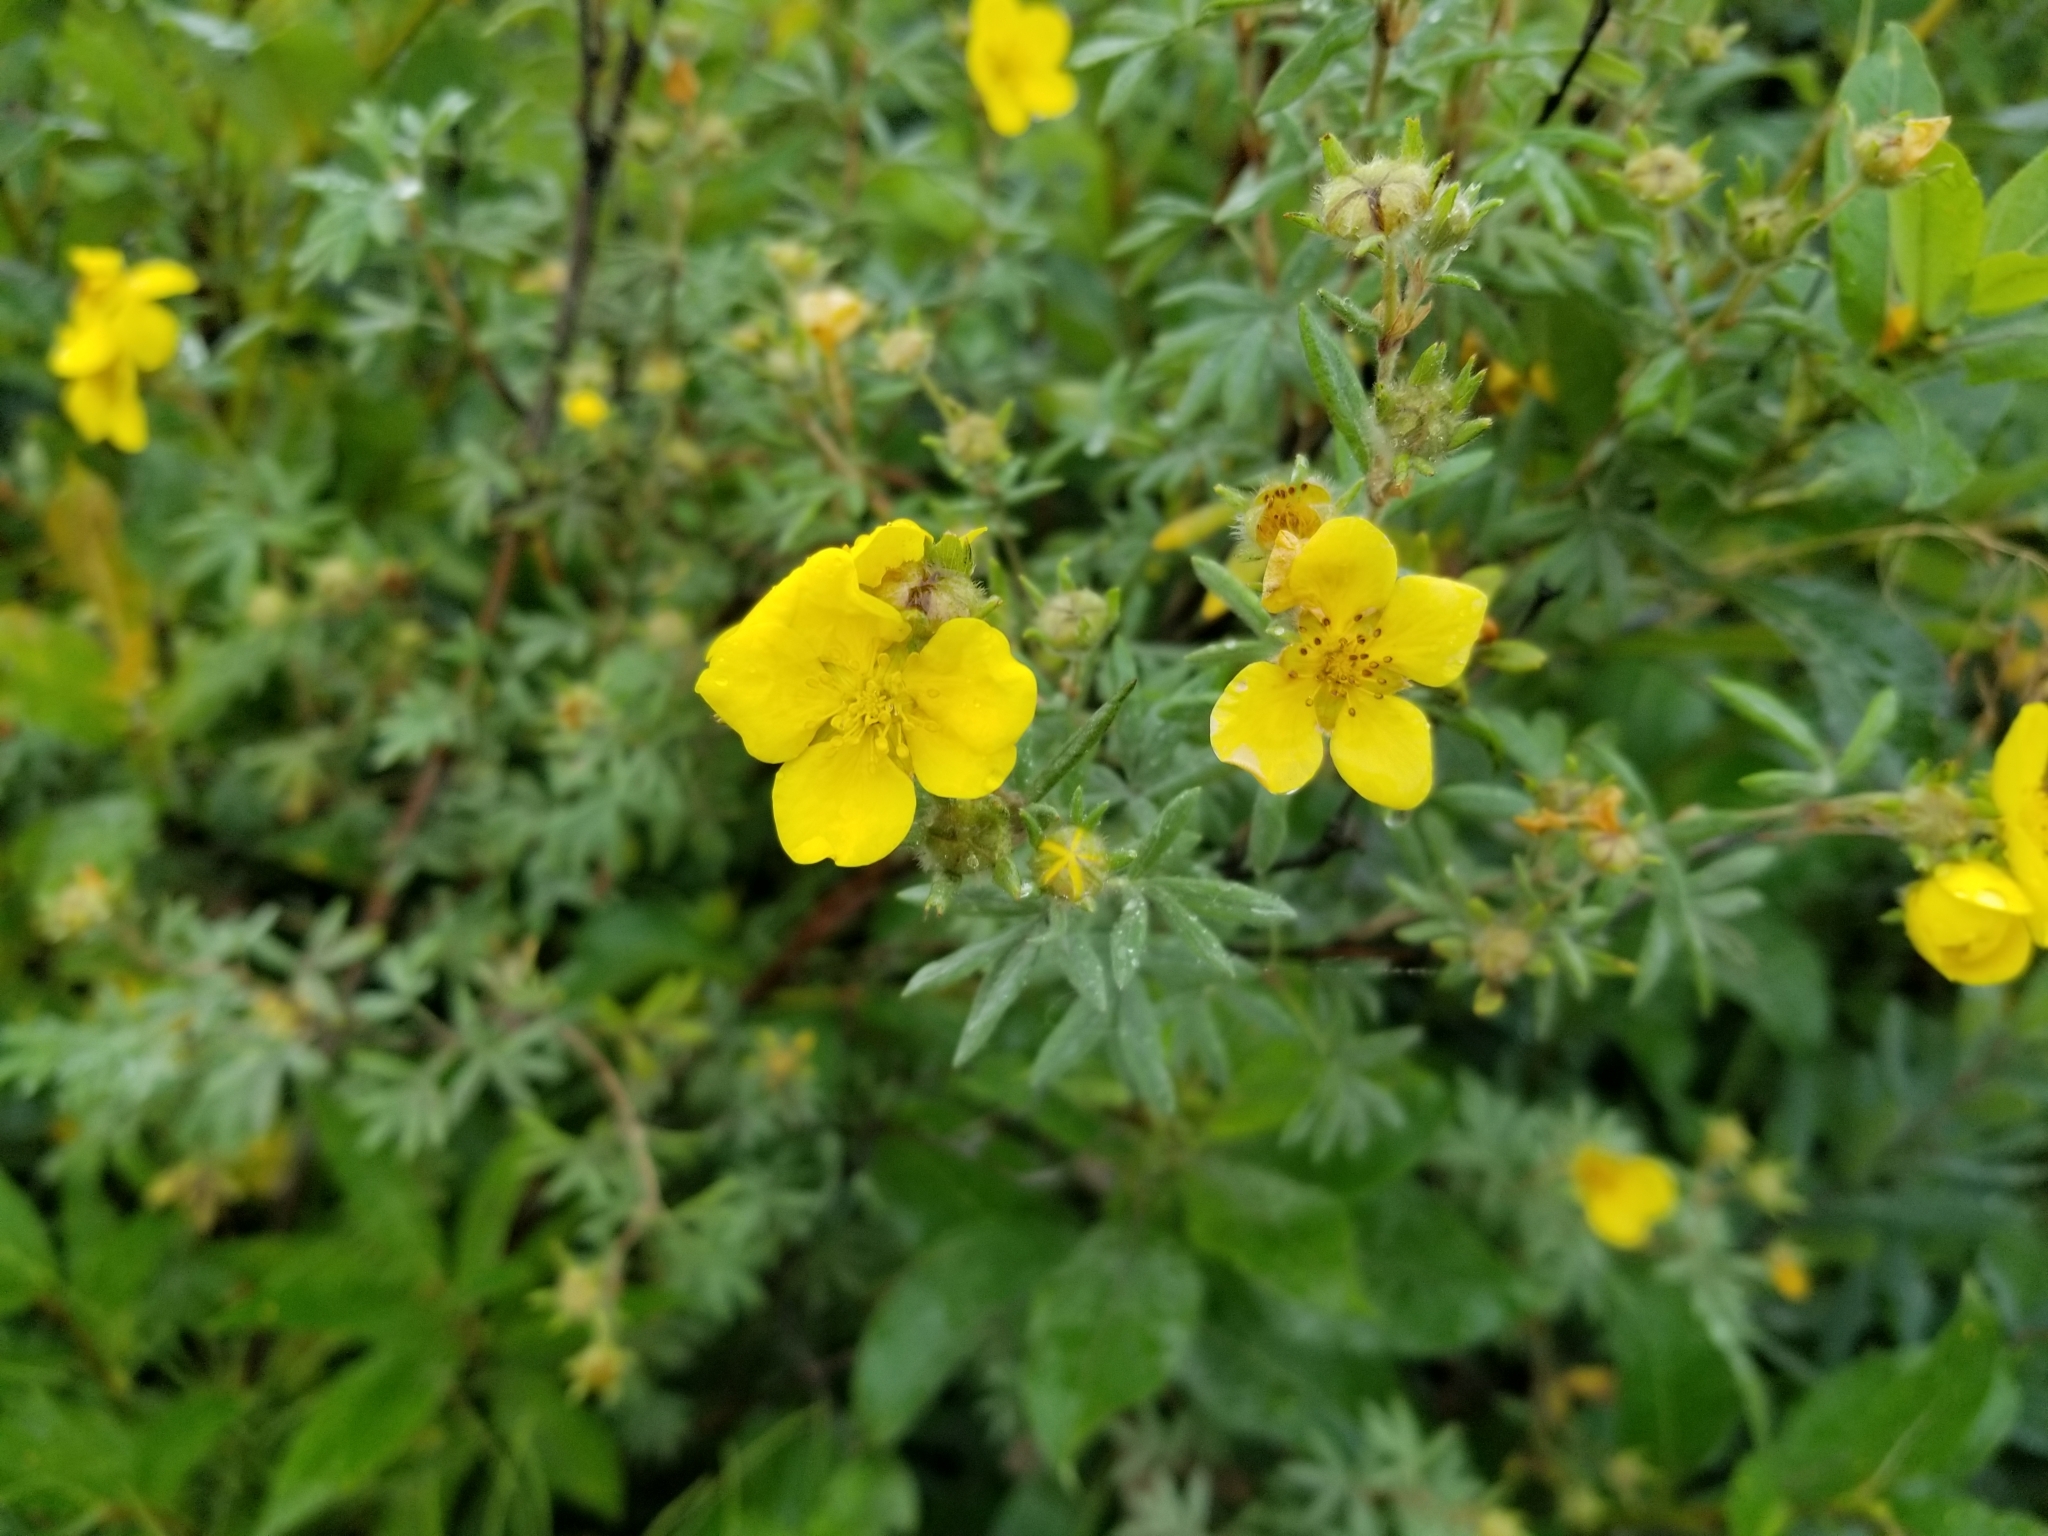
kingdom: Plantae
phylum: Tracheophyta
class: Magnoliopsida
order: Rosales
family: Rosaceae
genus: Dasiphora
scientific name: Dasiphora fruticosa
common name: Shrubby cinquefoil
